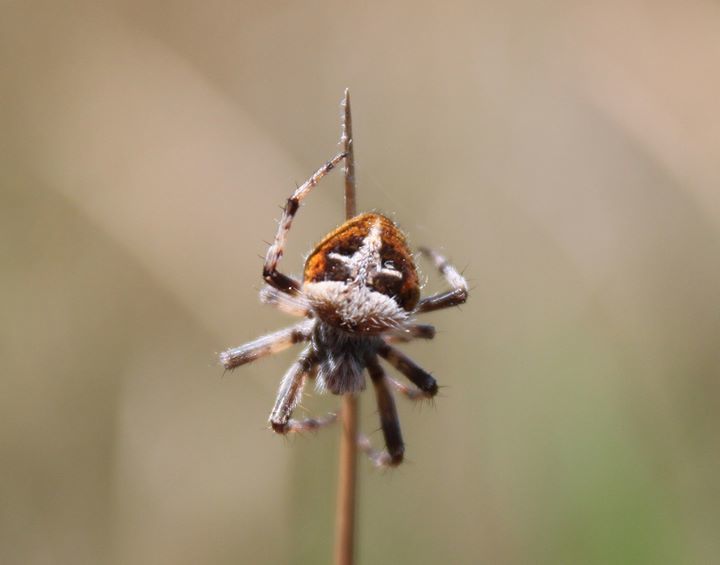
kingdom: Animalia
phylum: Arthropoda
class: Arachnida
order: Araneae
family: Araneidae
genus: Agalenatea
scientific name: Agalenatea redii
